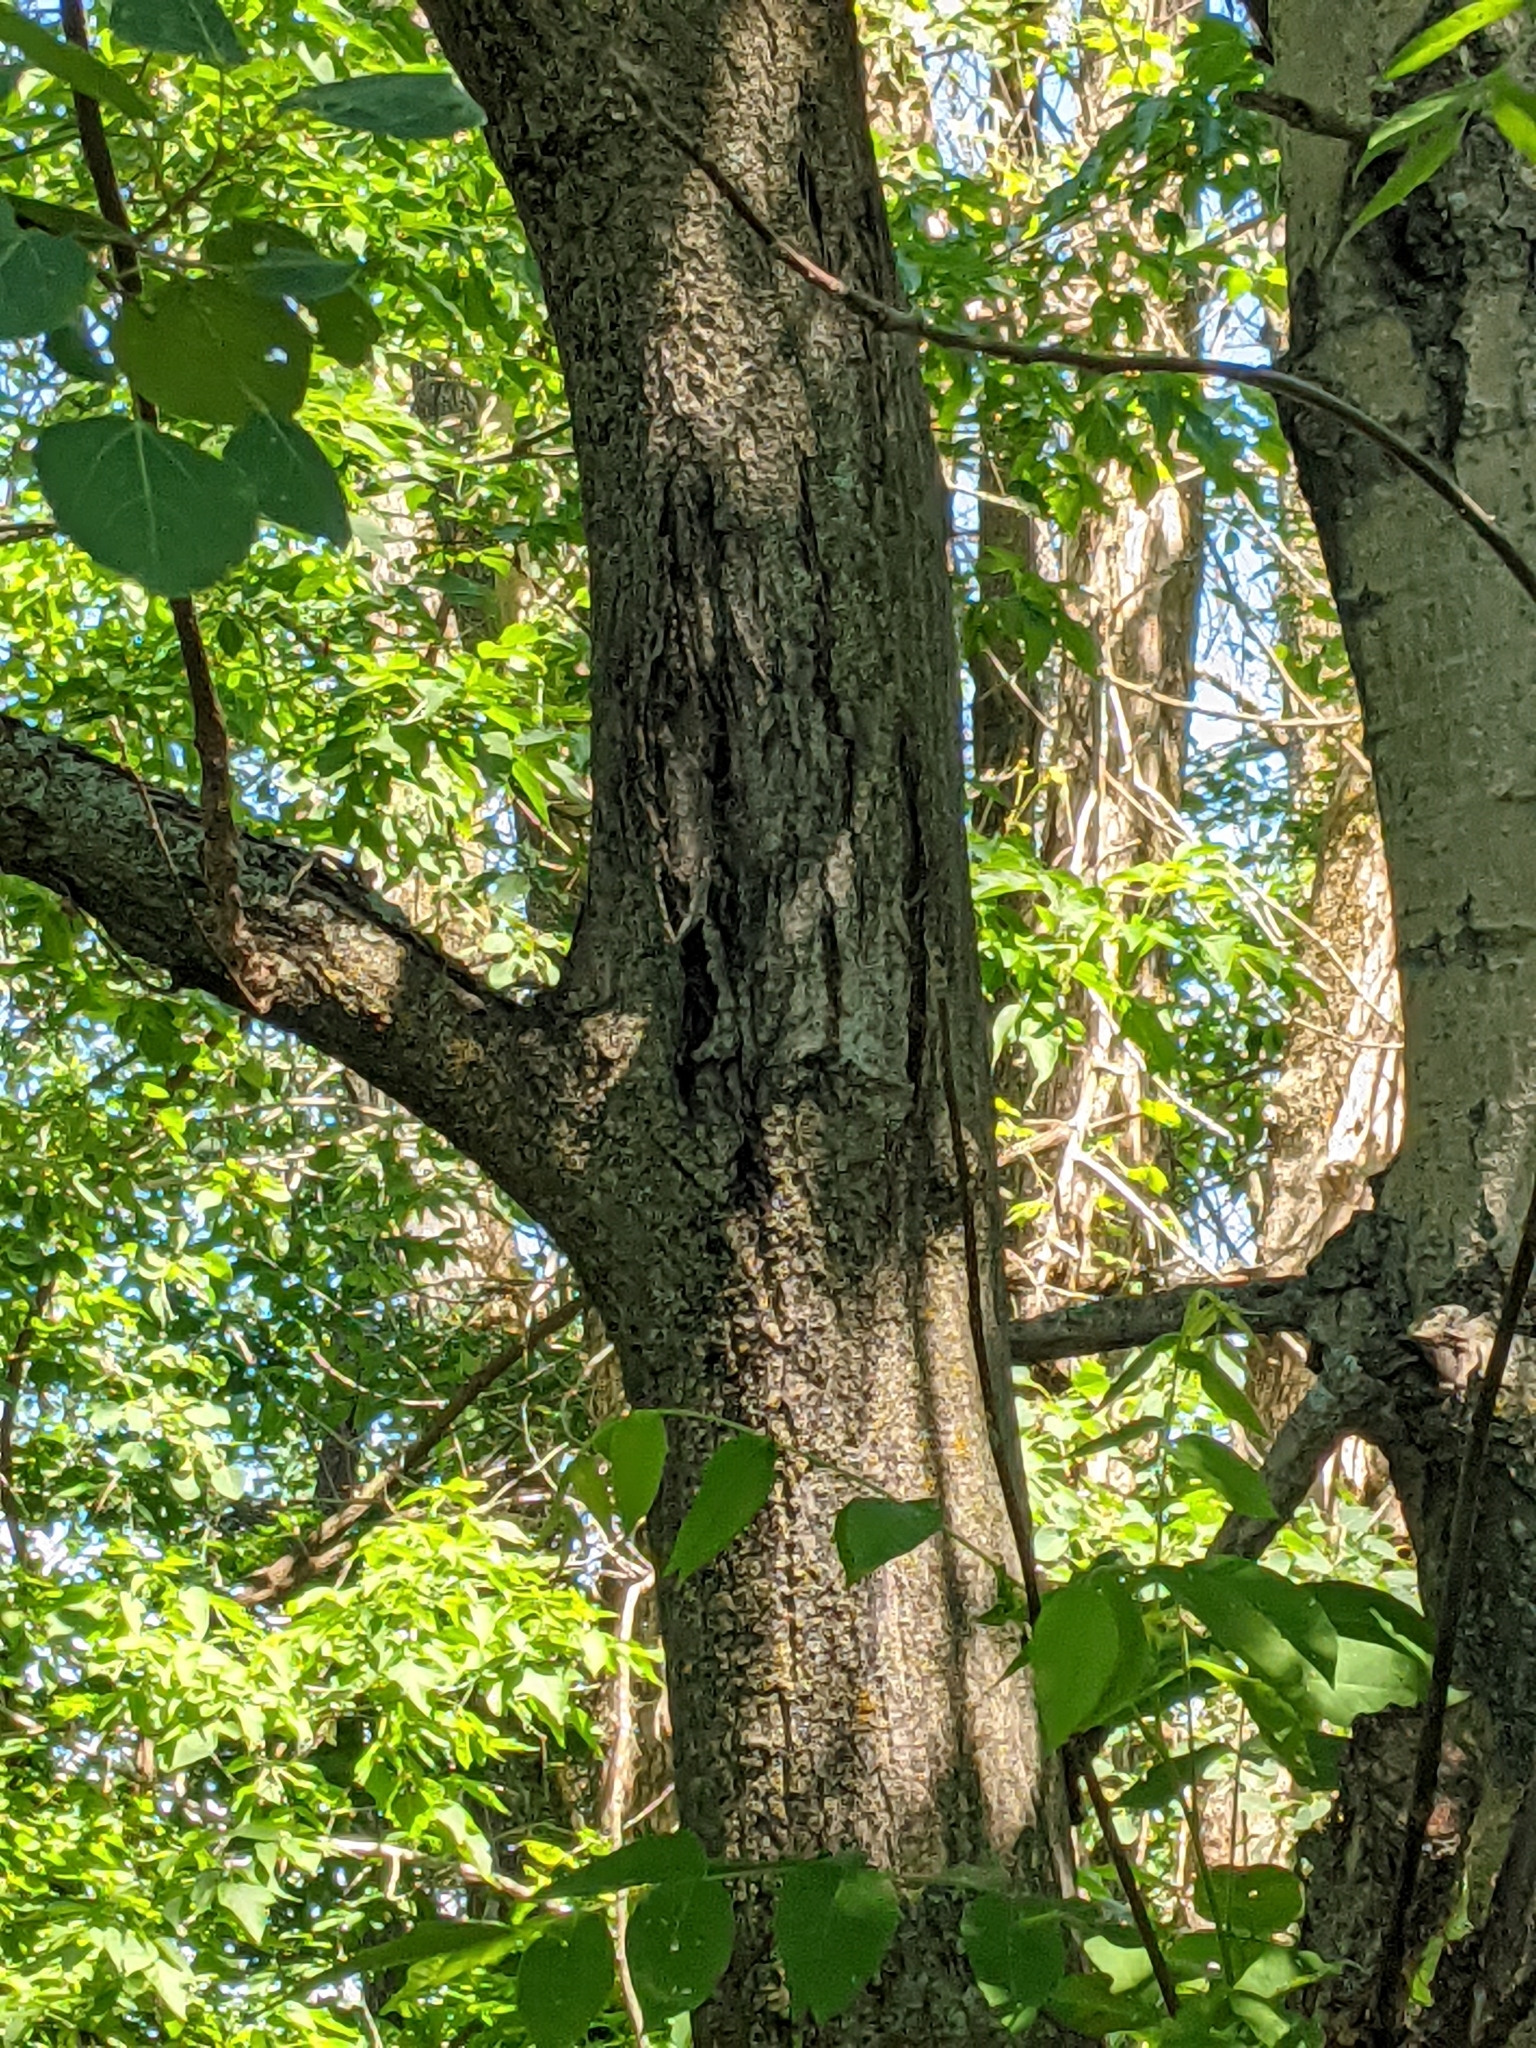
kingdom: Plantae
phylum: Tracheophyta
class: Magnoliopsida
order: Fagales
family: Juglandaceae
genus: Juglans
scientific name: Juglans cinerea
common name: Butternut
